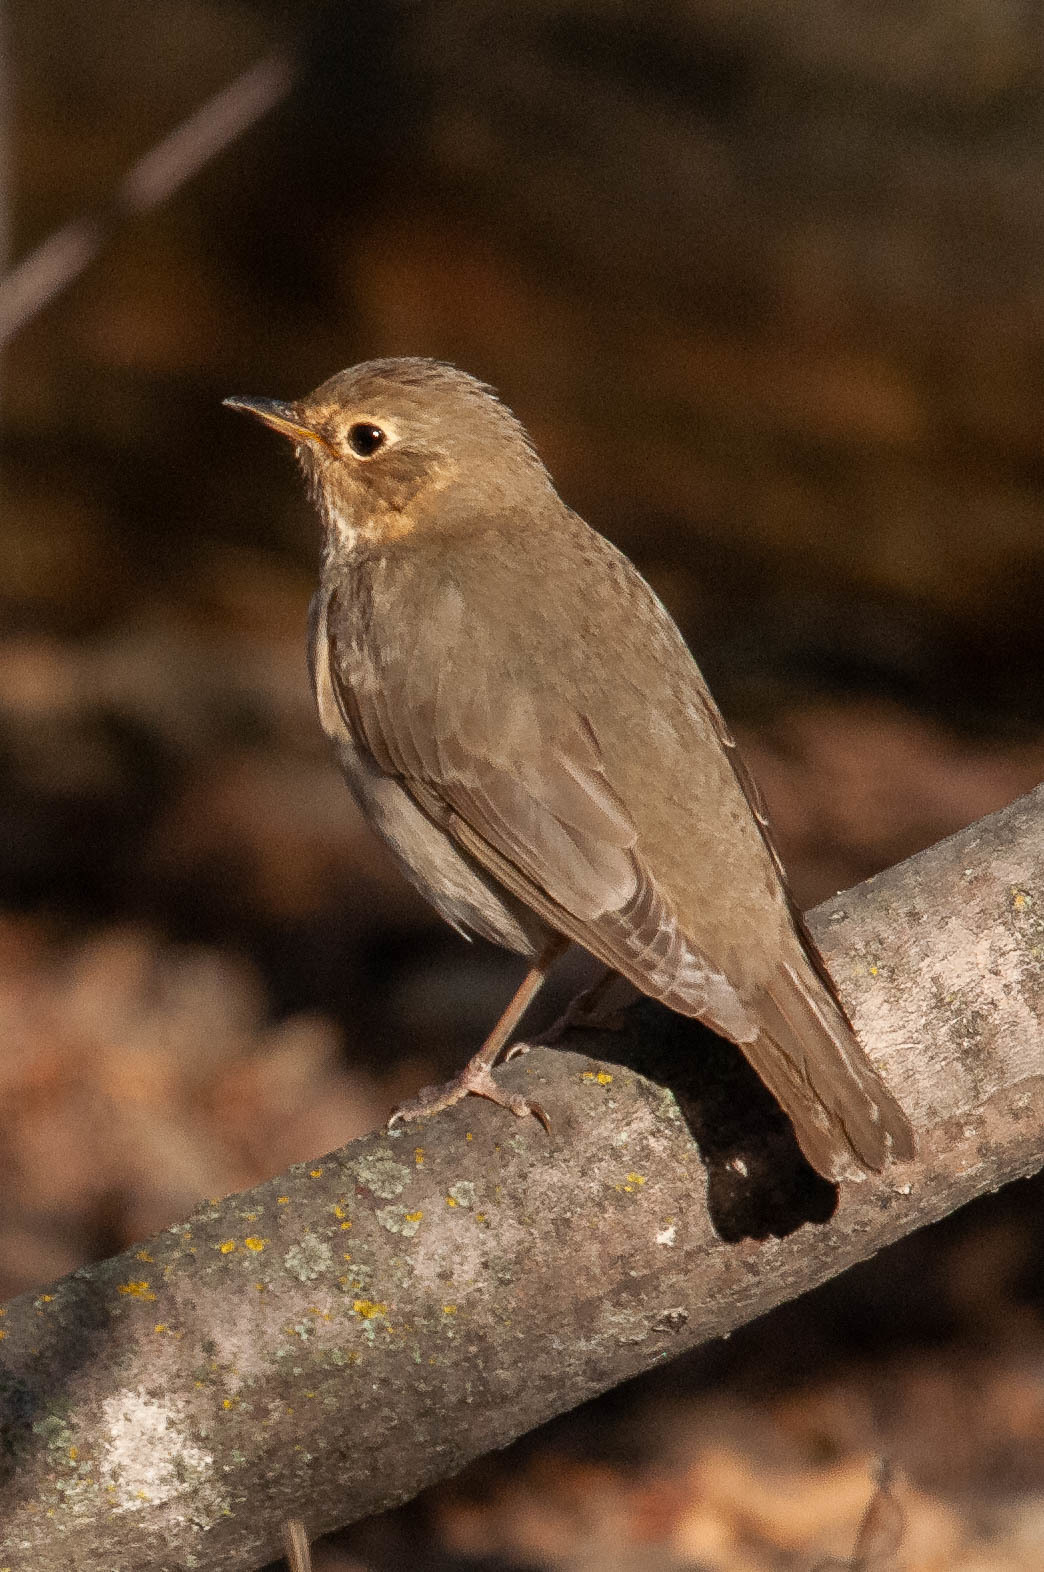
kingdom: Animalia
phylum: Chordata
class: Aves
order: Passeriformes
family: Turdidae
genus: Catharus
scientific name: Catharus ustulatus
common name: Swainson's thrush
